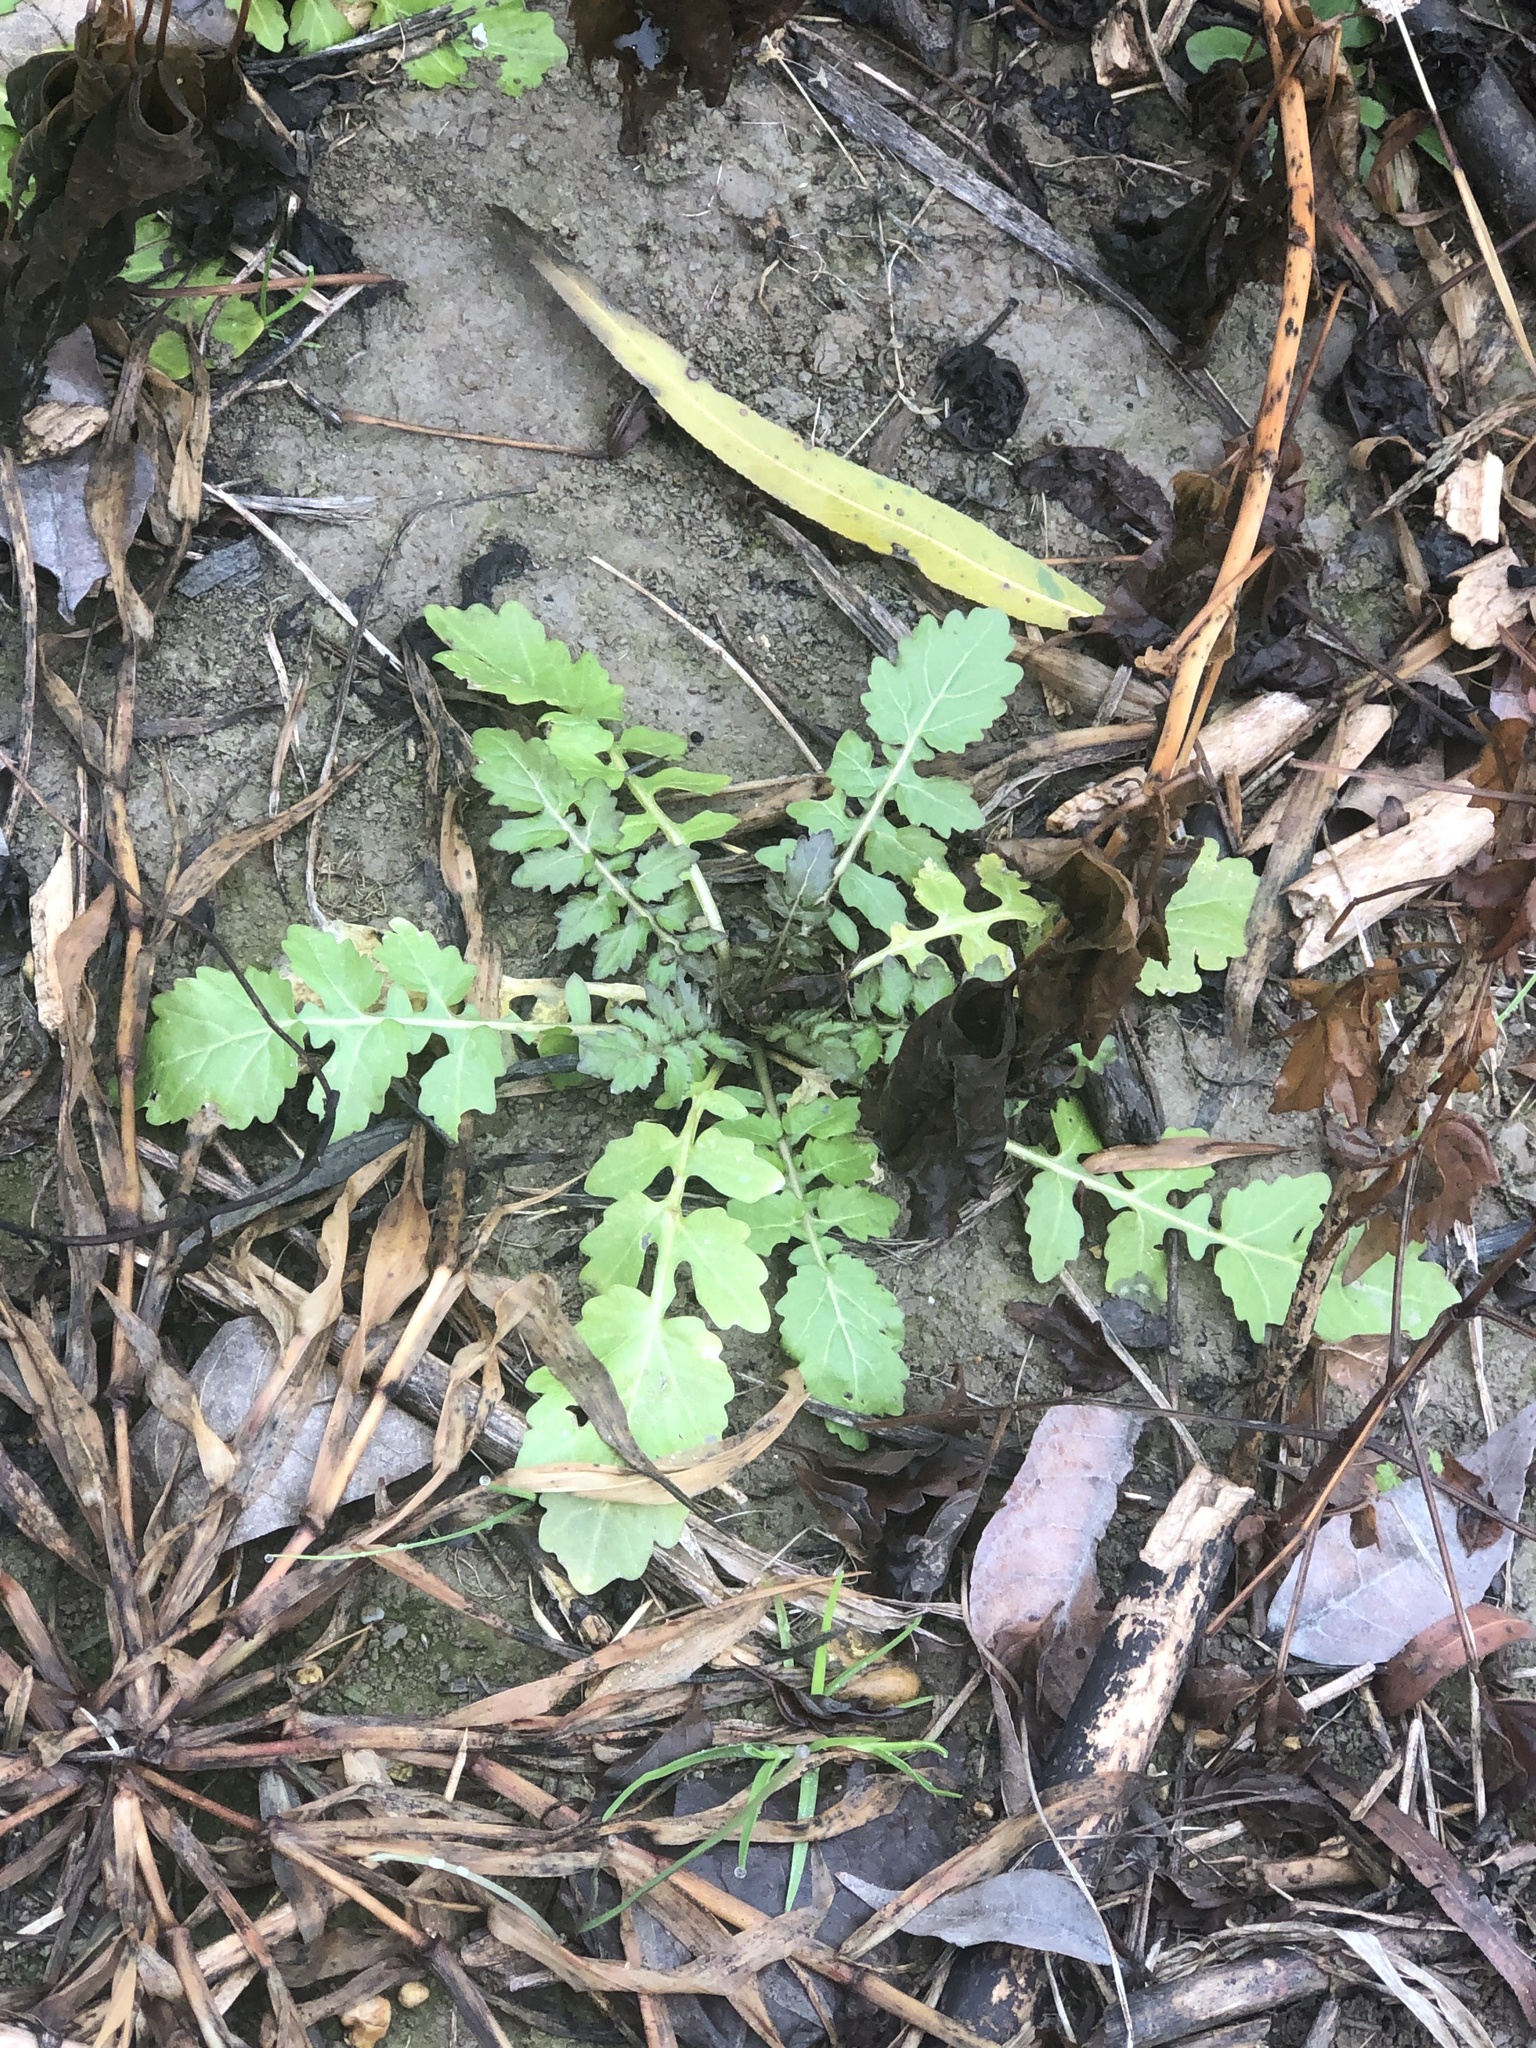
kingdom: Plantae
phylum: Tracheophyta
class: Magnoliopsida
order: Brassicales
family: Brassicaceae
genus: Rorippa
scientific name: Rorippa teres
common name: Southern marsh yellowcress
